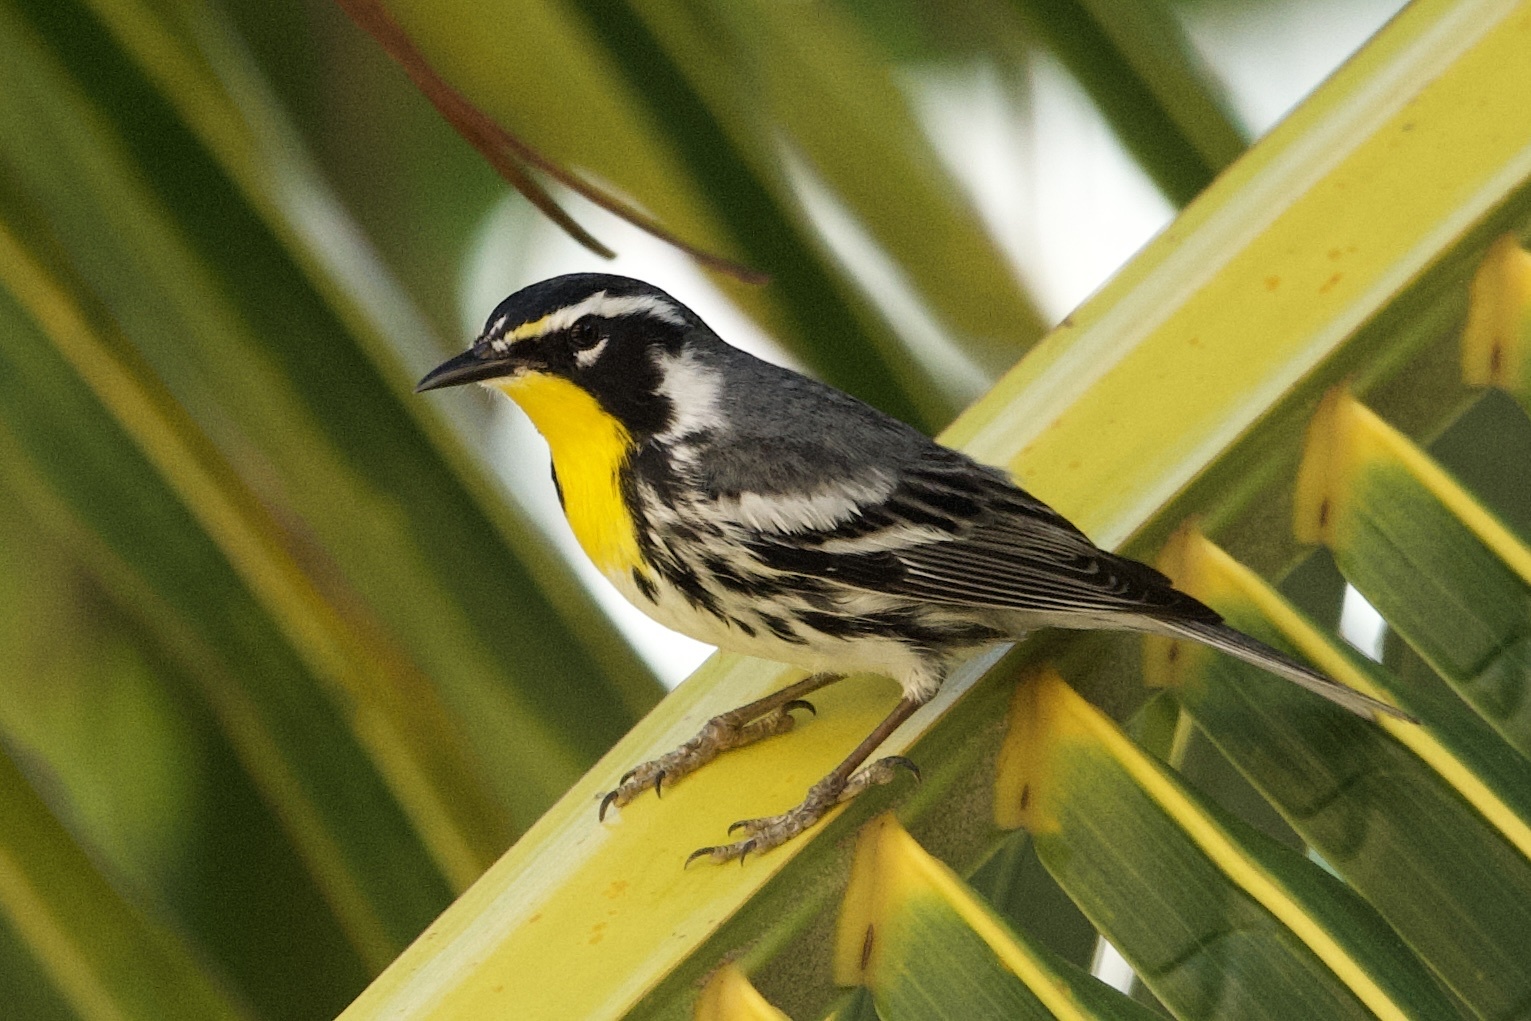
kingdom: Animalia
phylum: Chordata
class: Aves
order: Passeriformes
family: Parulidae
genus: Setophaga
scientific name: Setophaga dominica
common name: Yellow-throated warbler
